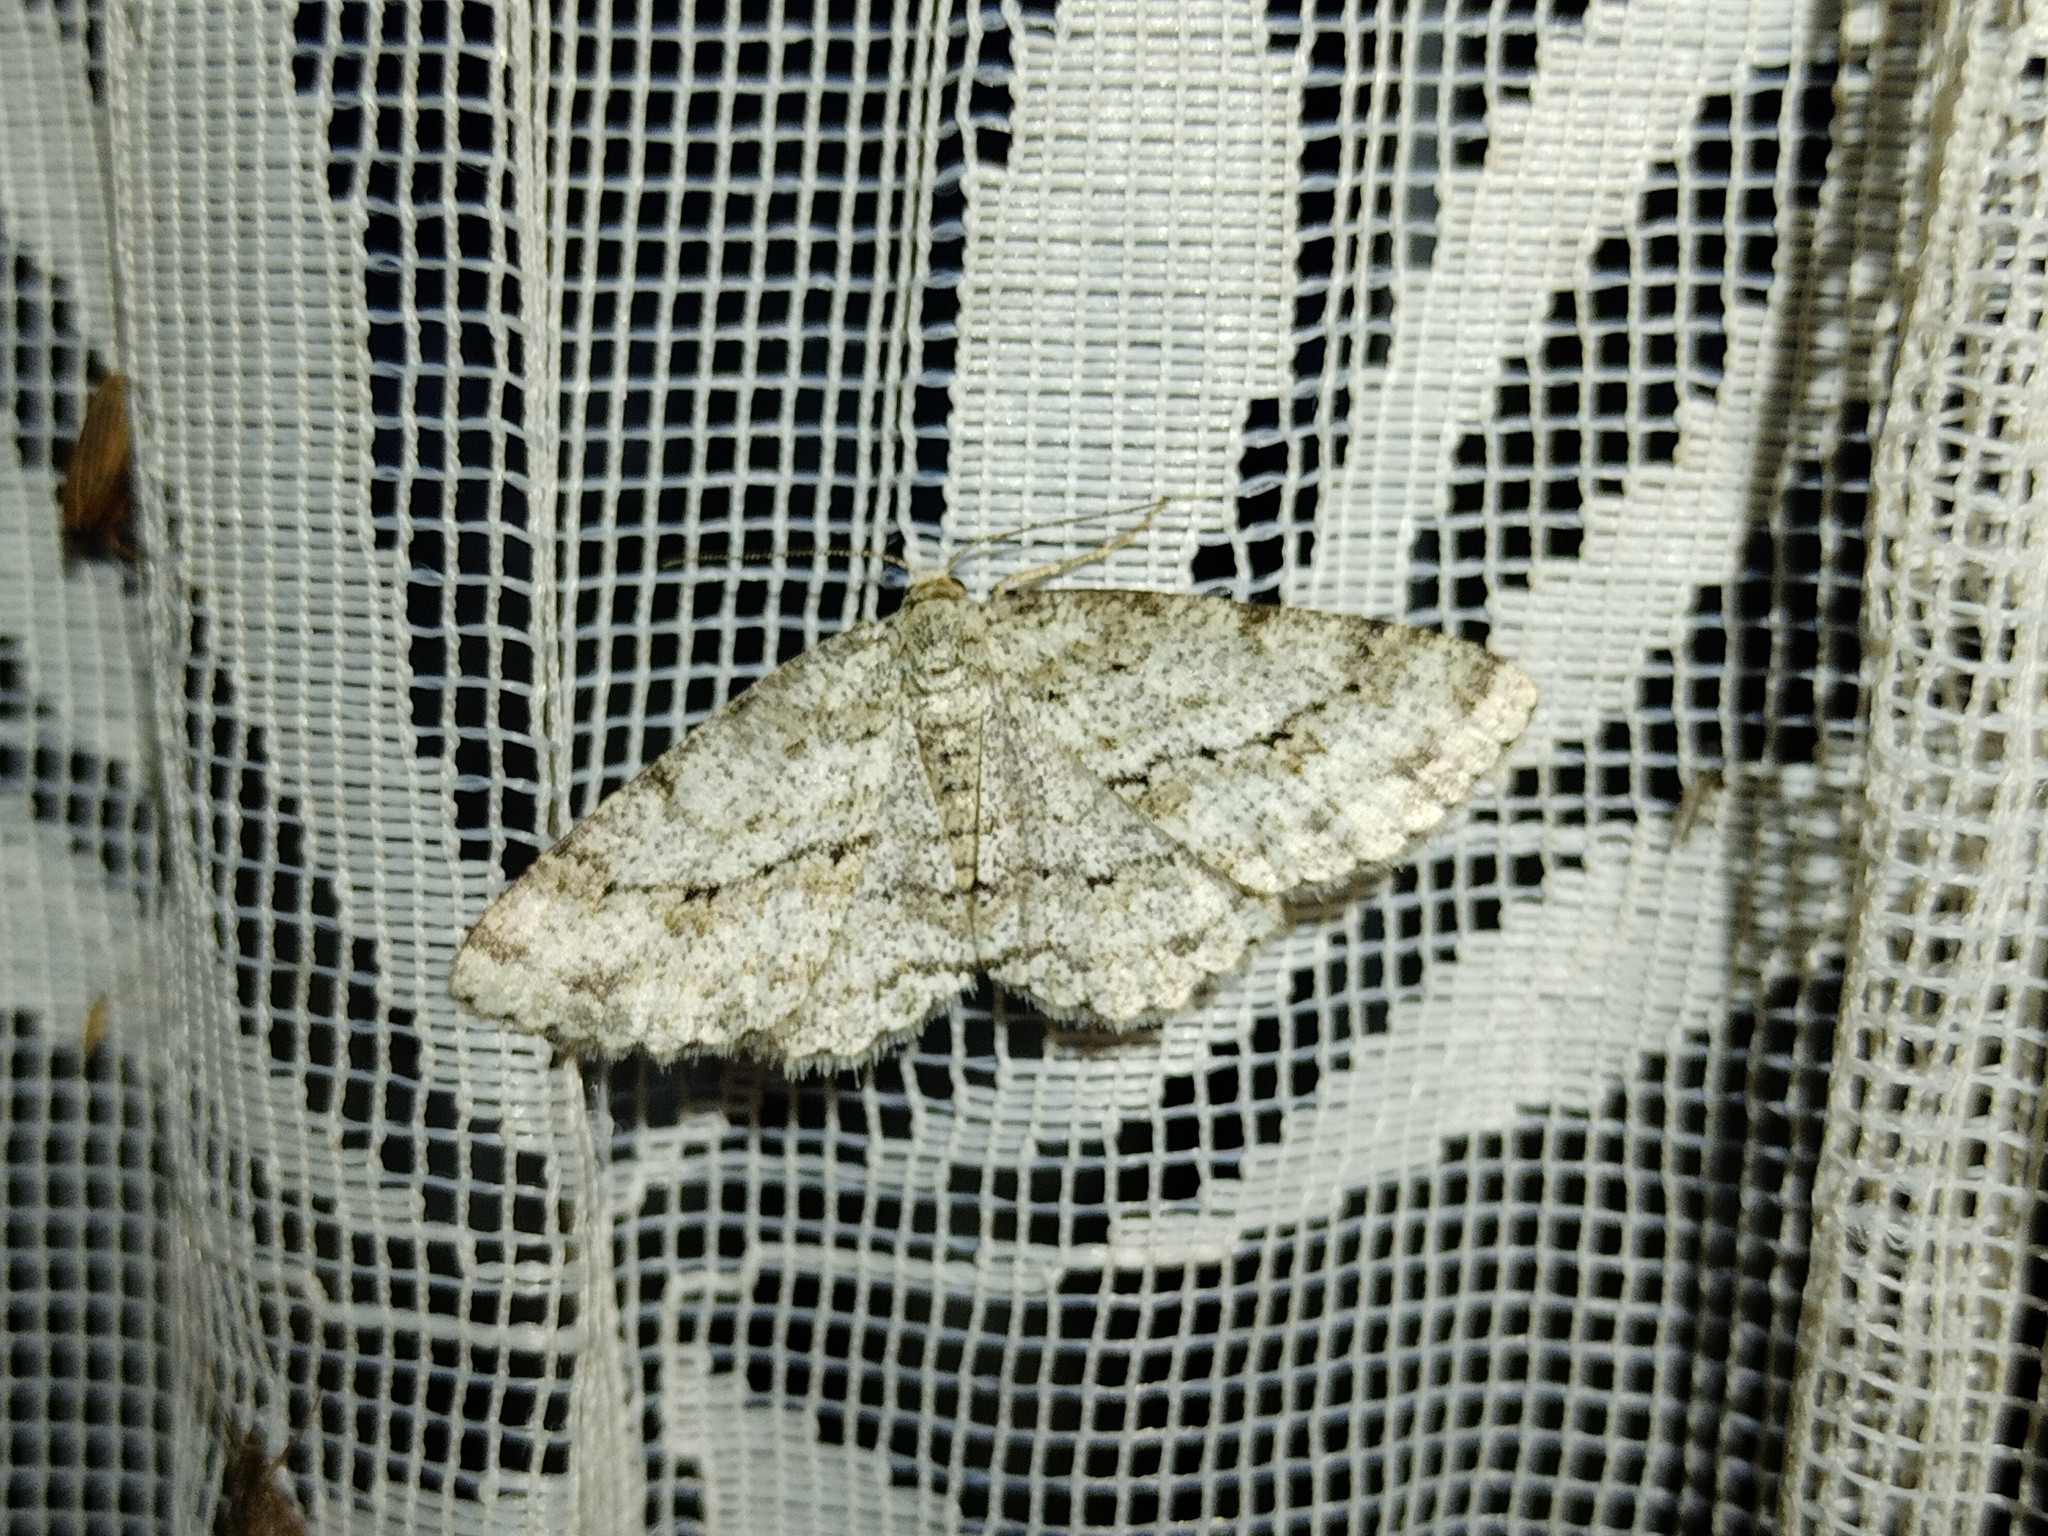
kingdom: Animalia
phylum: Arthropoda
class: Insecta
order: Lepidoptera
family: Geometridae
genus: Ectropis
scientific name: Ectropis crepuscularia
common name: Engrailed
